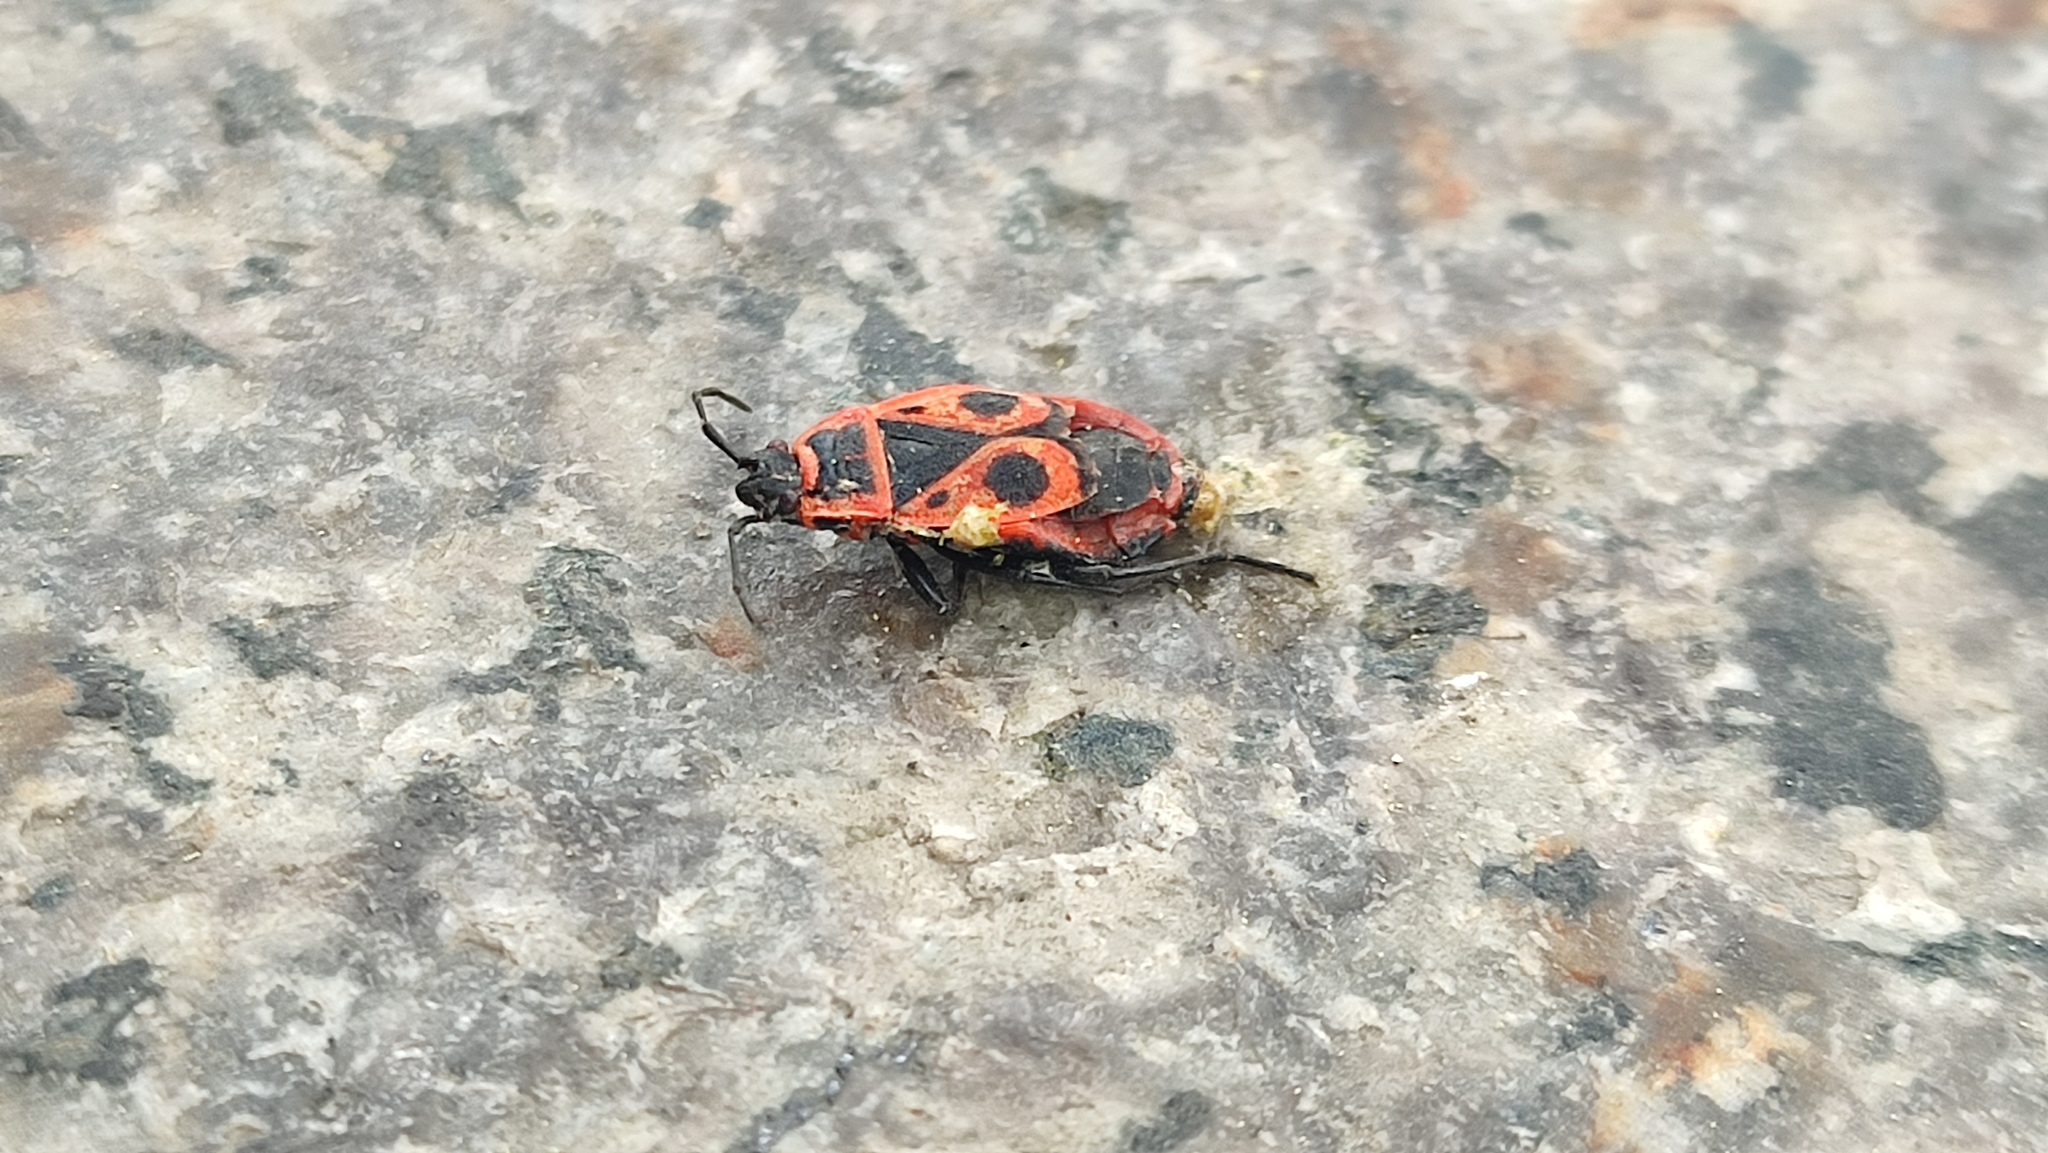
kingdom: Animalia
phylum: Arthropoda
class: Insecta
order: Hemiptera
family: Pyrrhocoridae
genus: Pyrrhocoris
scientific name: Pyrrhocoris apterus
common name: Firebug
